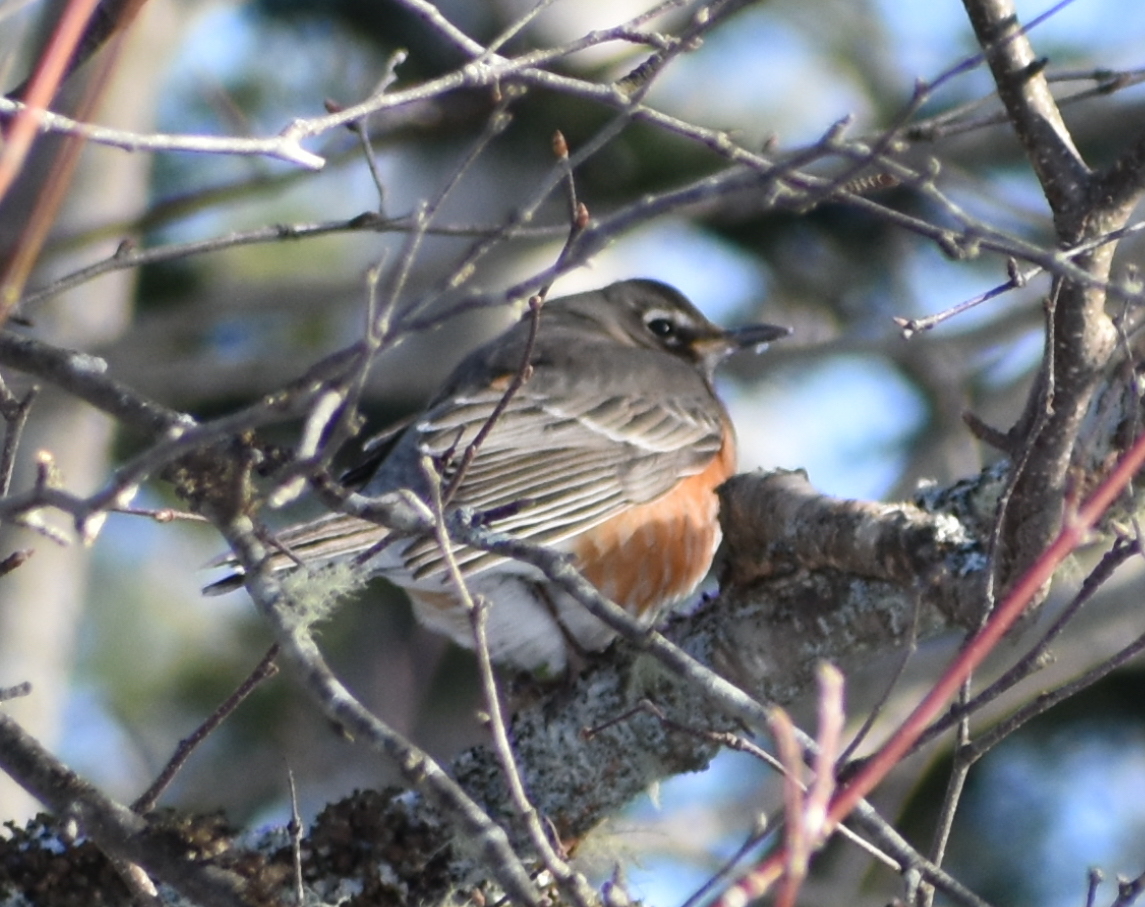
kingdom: Animalia
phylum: Chordata
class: Aves
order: Passeriformes
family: Turdidae
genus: Turdus
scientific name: Turdus migratorius
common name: American robin
